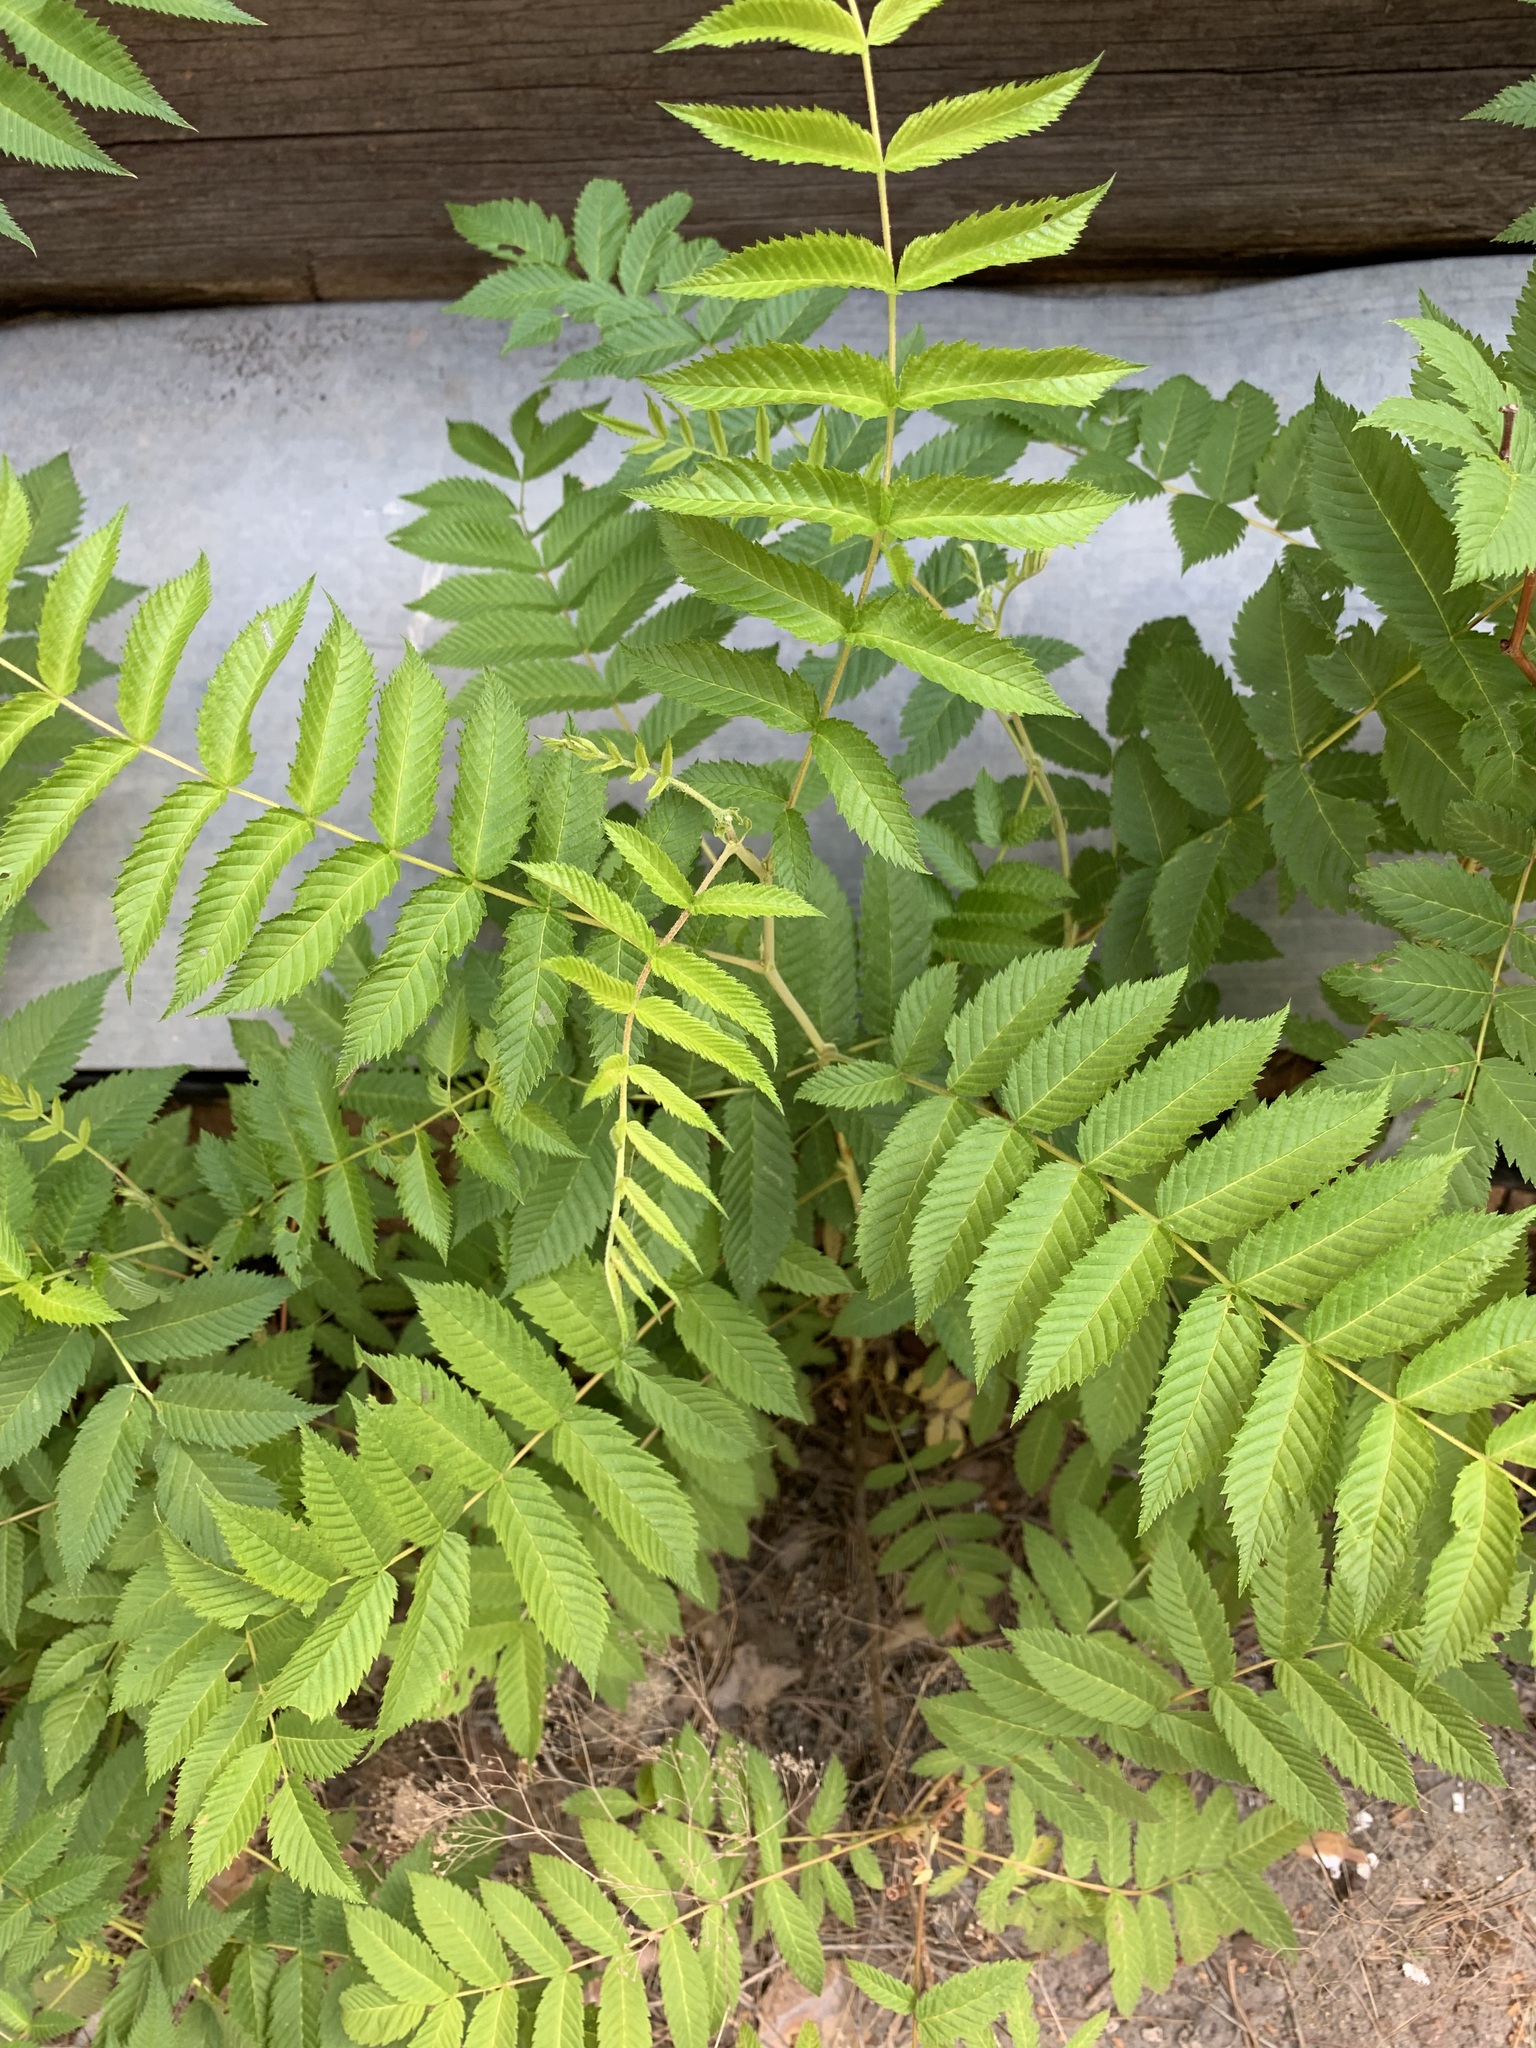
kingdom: Plantae
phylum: Tracheophyta
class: Magnoliopsida
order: Rosales
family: Rosaceae
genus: Sorbaria
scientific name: Sorbaria sorbifolia
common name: False spiraea
